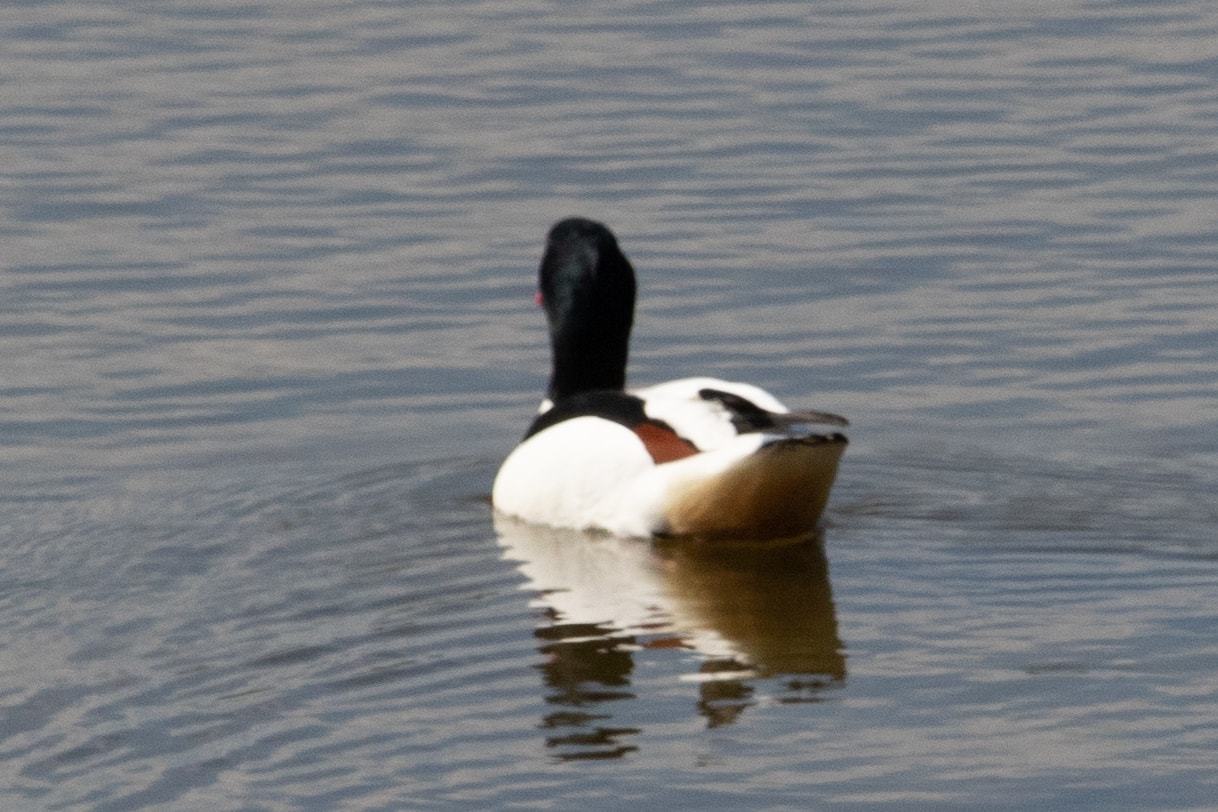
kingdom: Animalia
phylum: Chordata
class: Aves
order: Anseriformes
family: Anatidae
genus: Tadorna
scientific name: Tadorna tadorna
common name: Common shelduck
